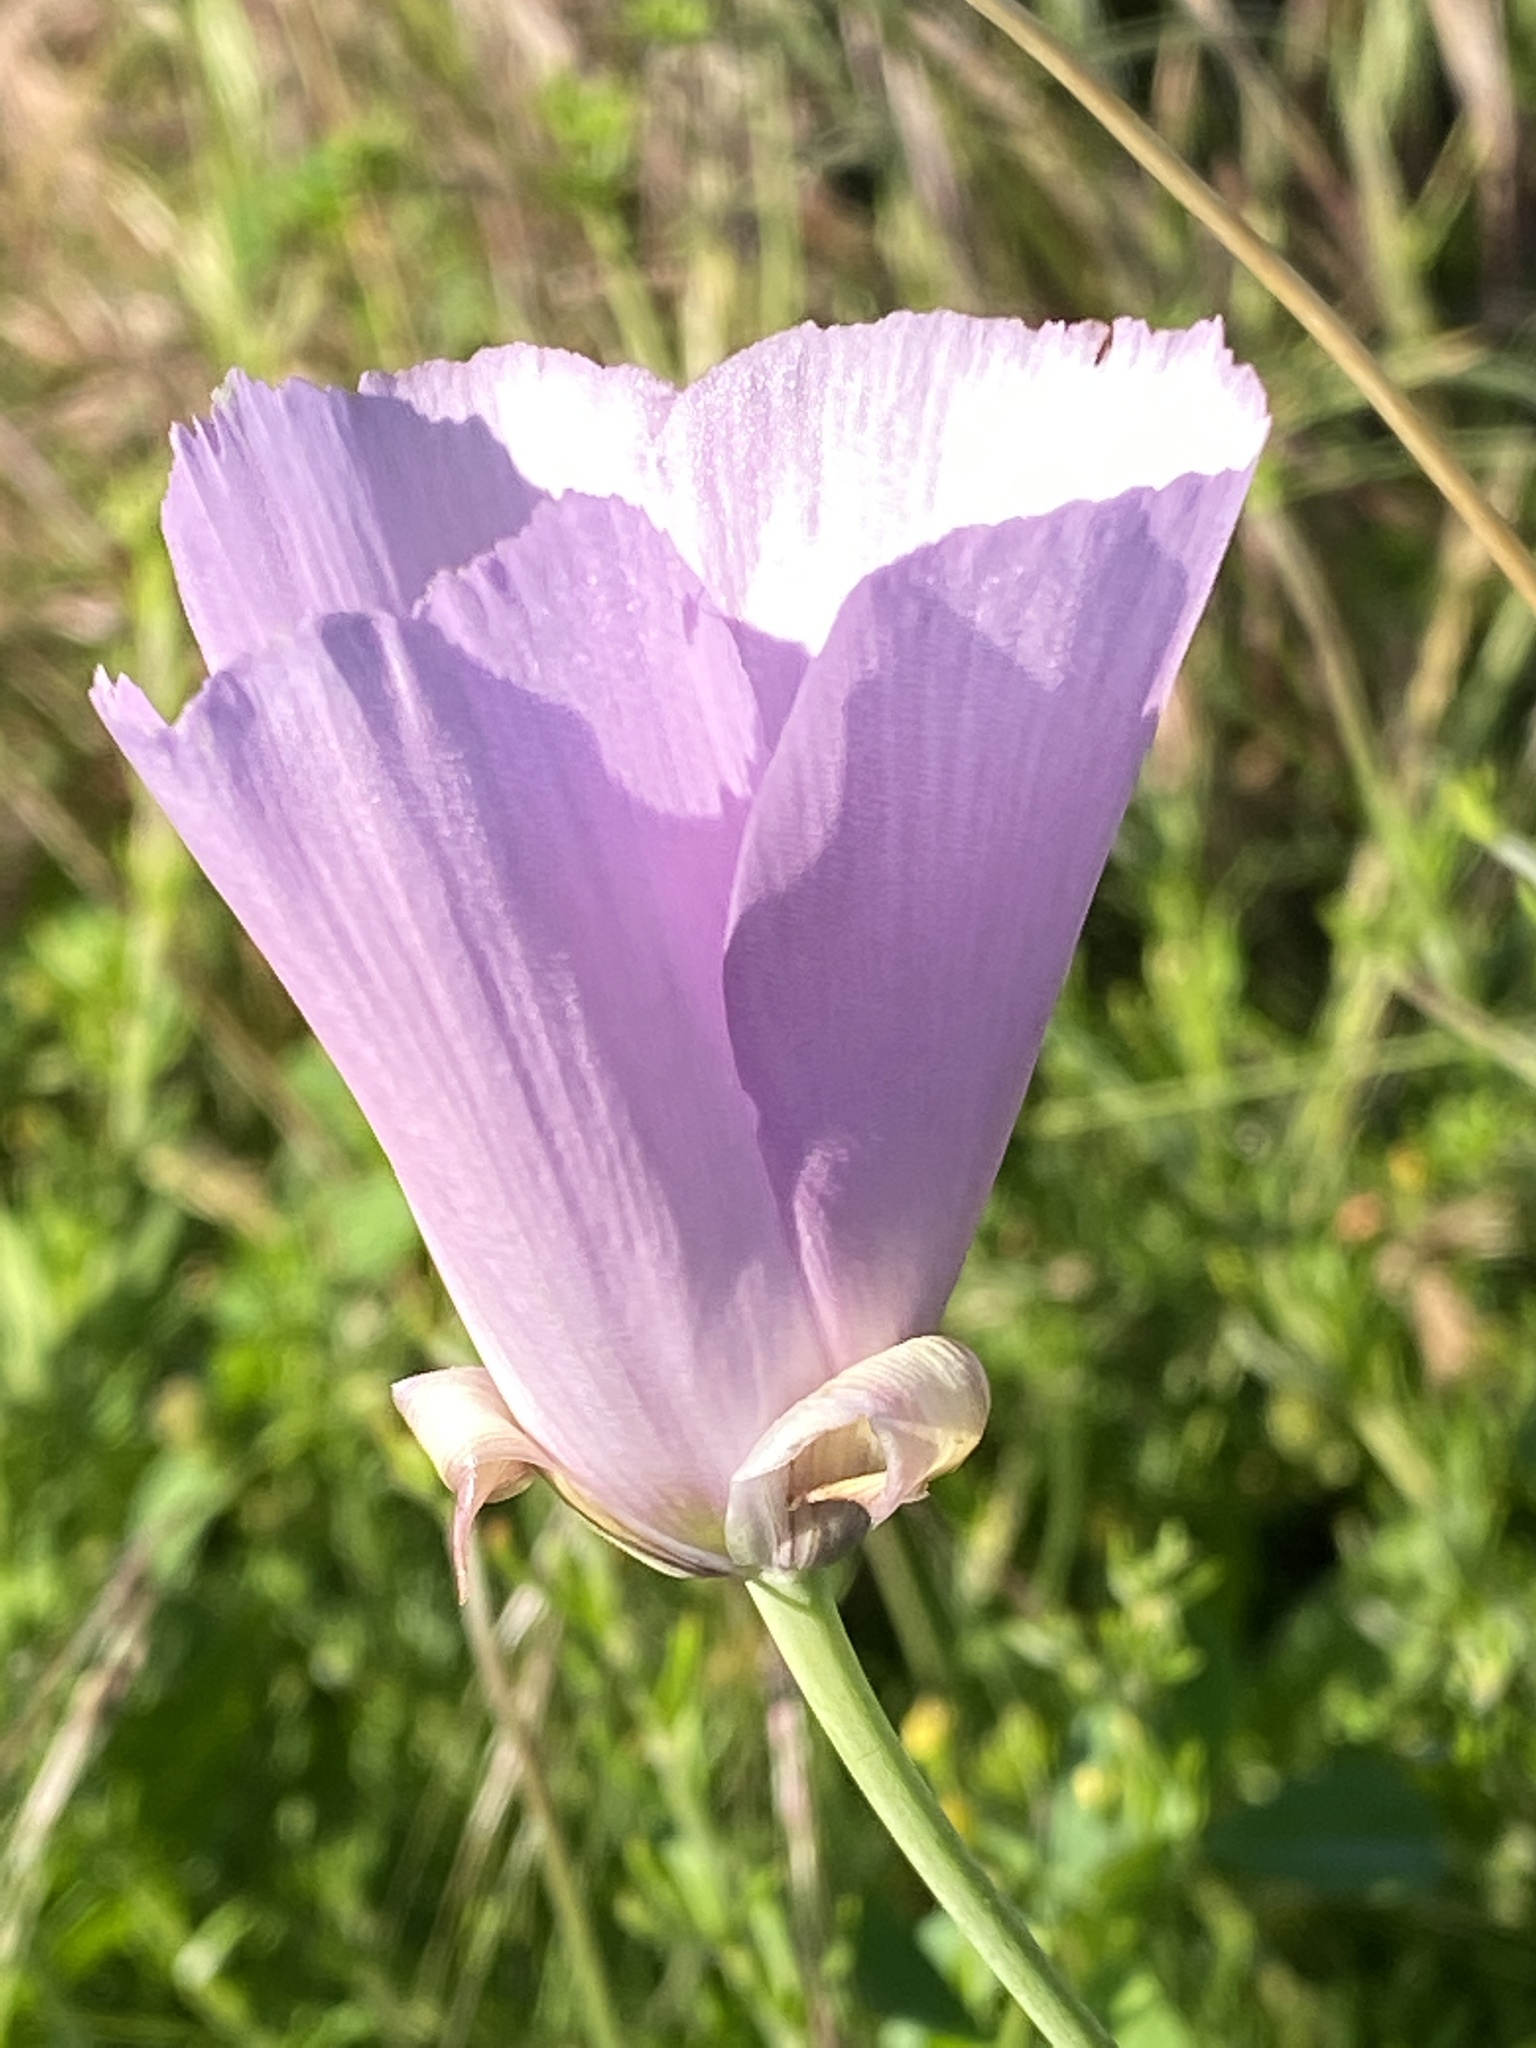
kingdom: Plantae
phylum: Tracheophyta
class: Liliopsida
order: Liliales
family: Liliaceae
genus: Calochortus
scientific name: Calochortus splendens
